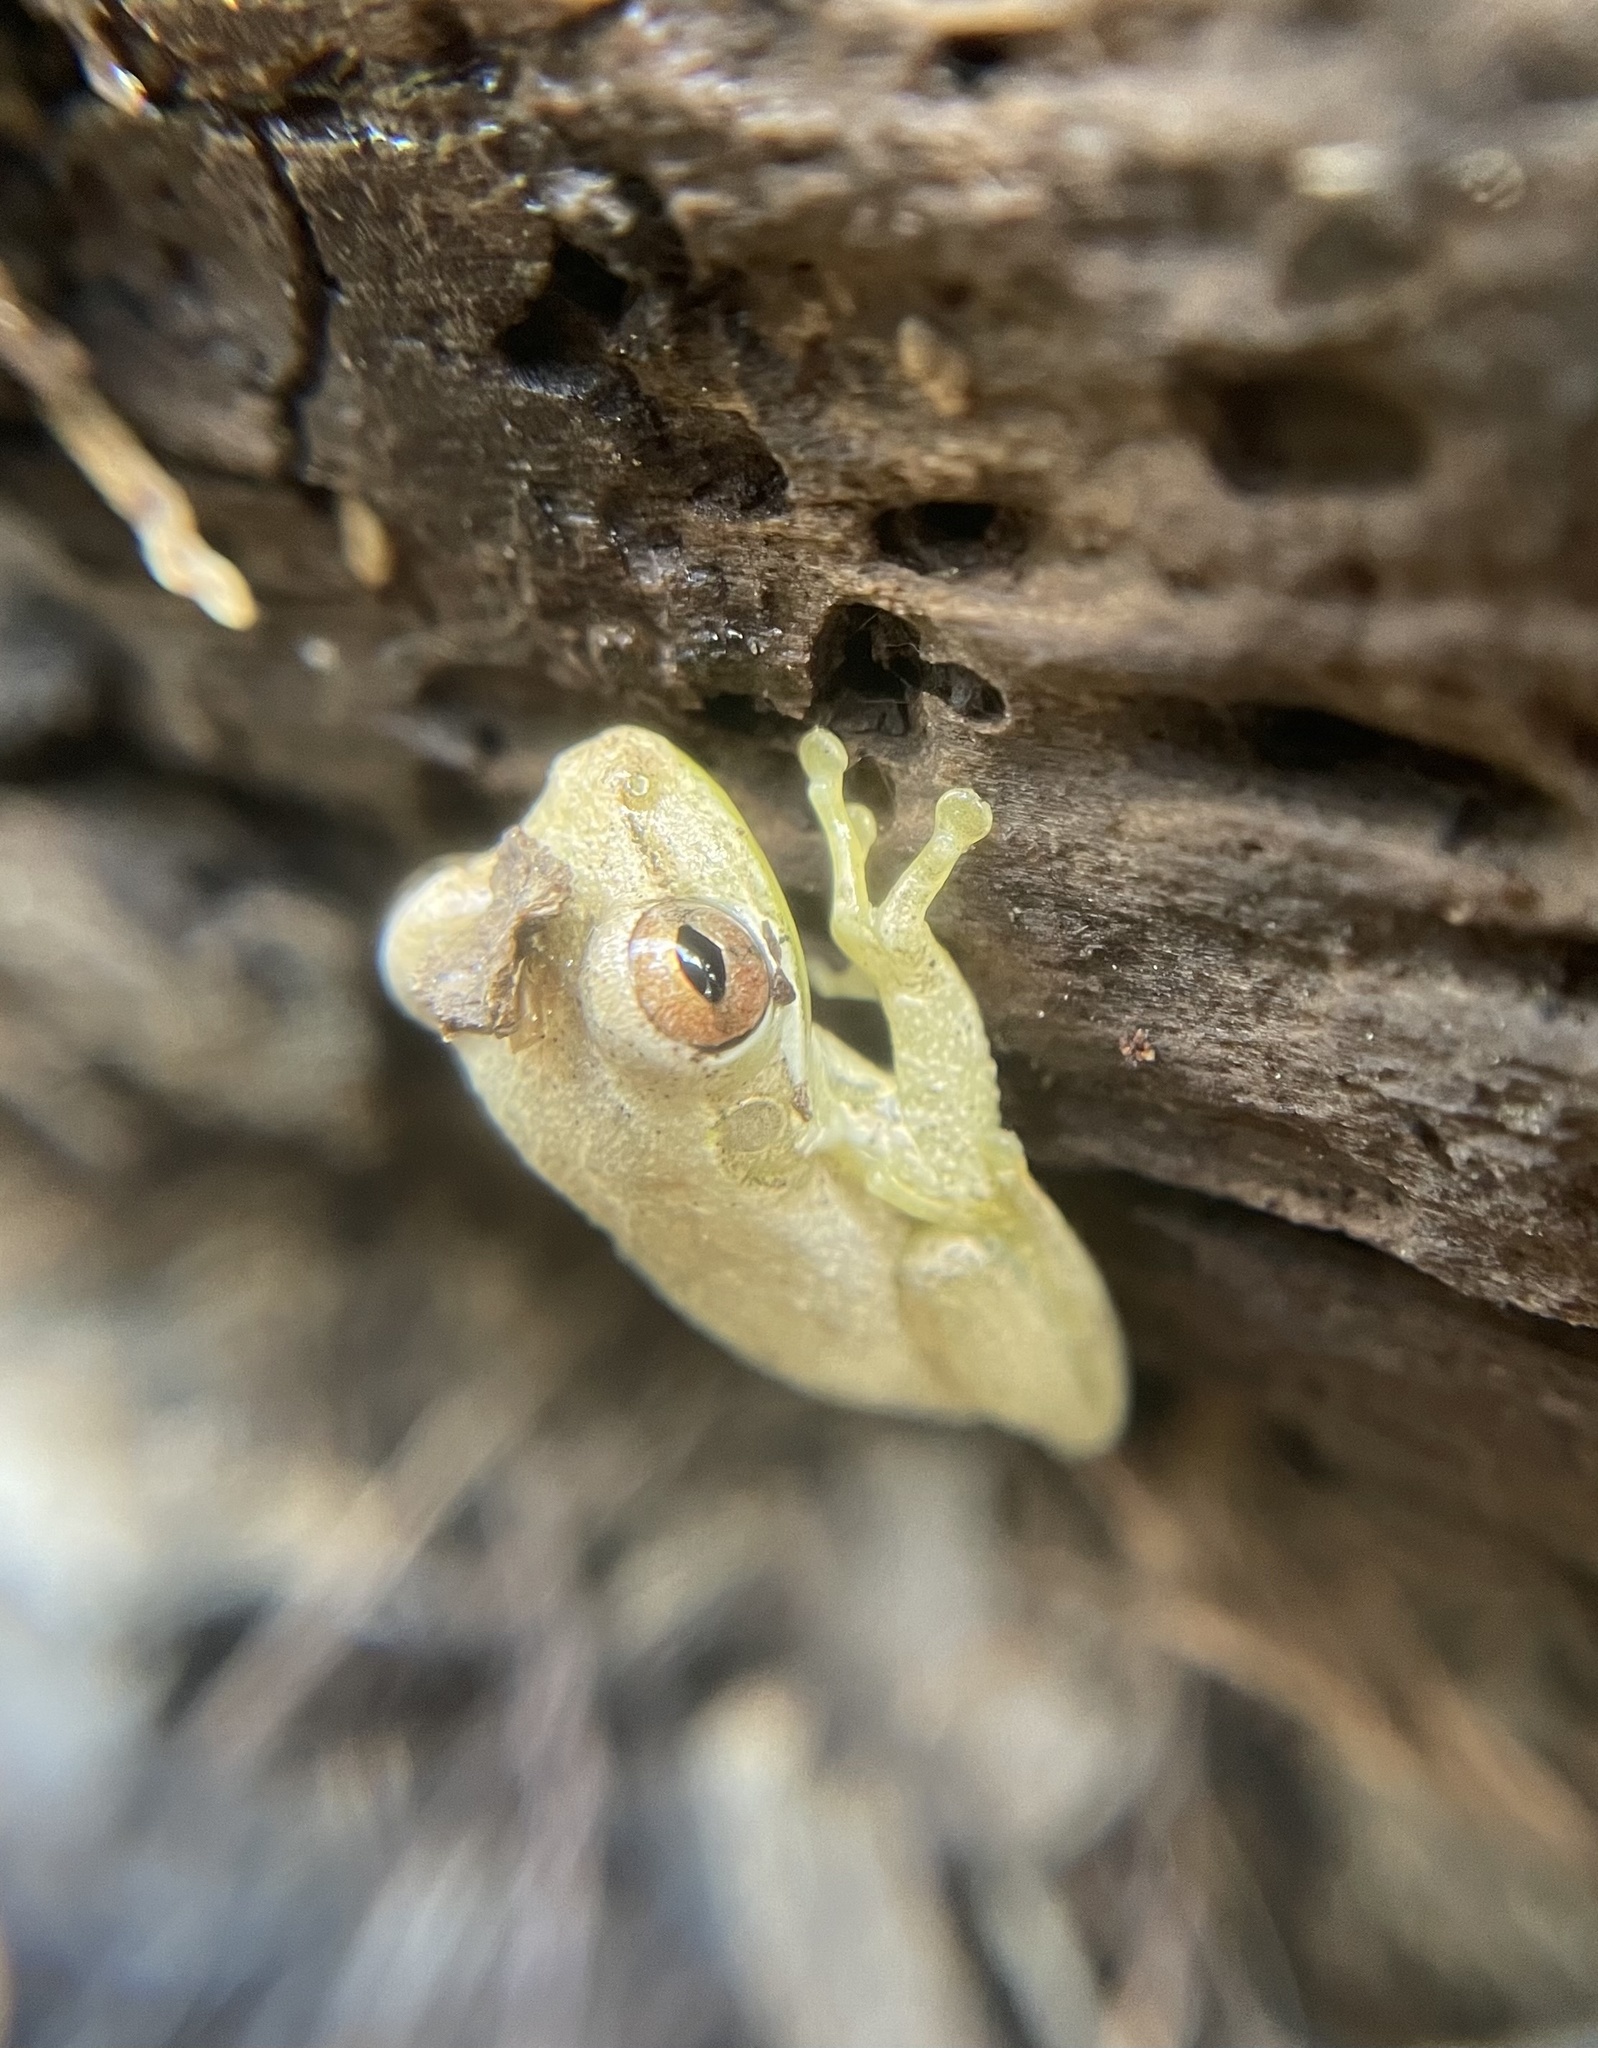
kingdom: Animalia
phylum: Chordata
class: Amphibia
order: Anura
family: Hylidae
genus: Osteopilus
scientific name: Osteopilus septentrionalis
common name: Cuban treefrog
